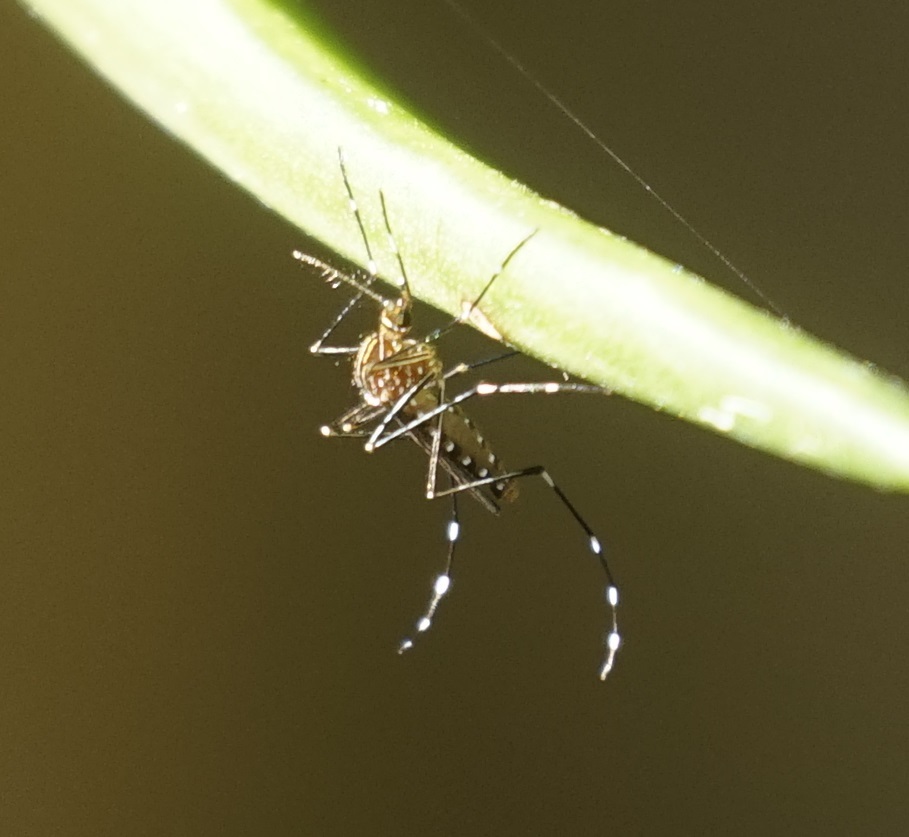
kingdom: Animalia
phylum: Arthropoda
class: Insecta
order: Diptera
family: Culicidae
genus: Aedes
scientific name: Aedes notoscriptus
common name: Australian backyard mosquito
